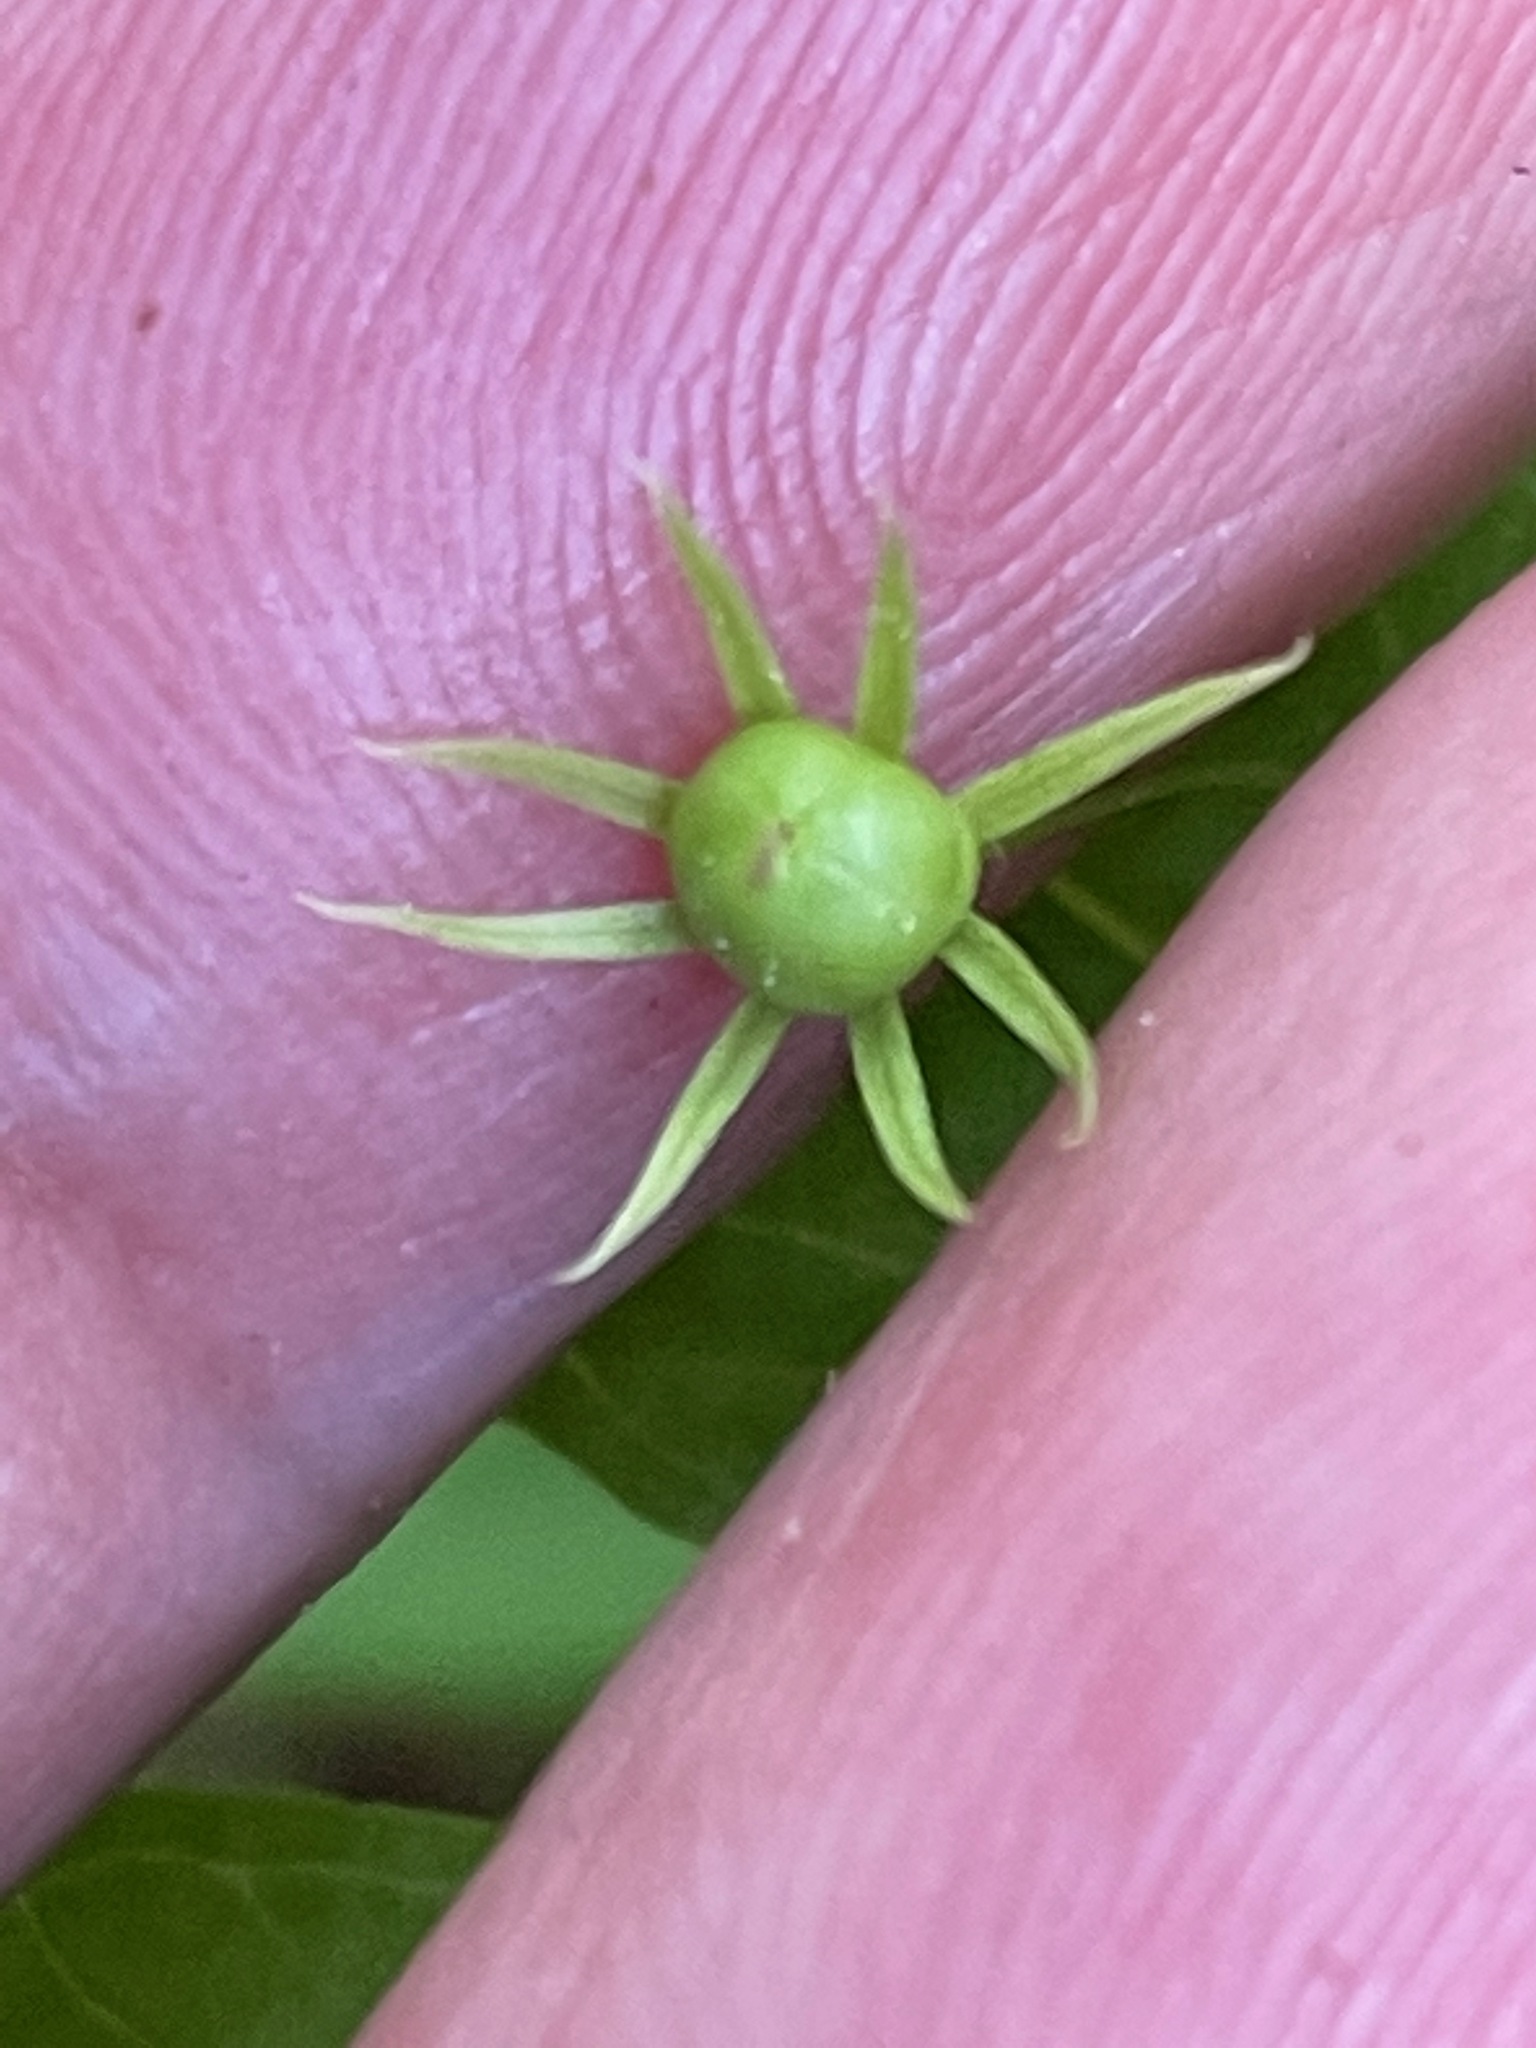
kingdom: Plantae
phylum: Tracheophyta
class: Magnoliopsida
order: Ericales
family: Primulaceae
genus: Lysimachia
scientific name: Lysimachia borealis
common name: American starflower
